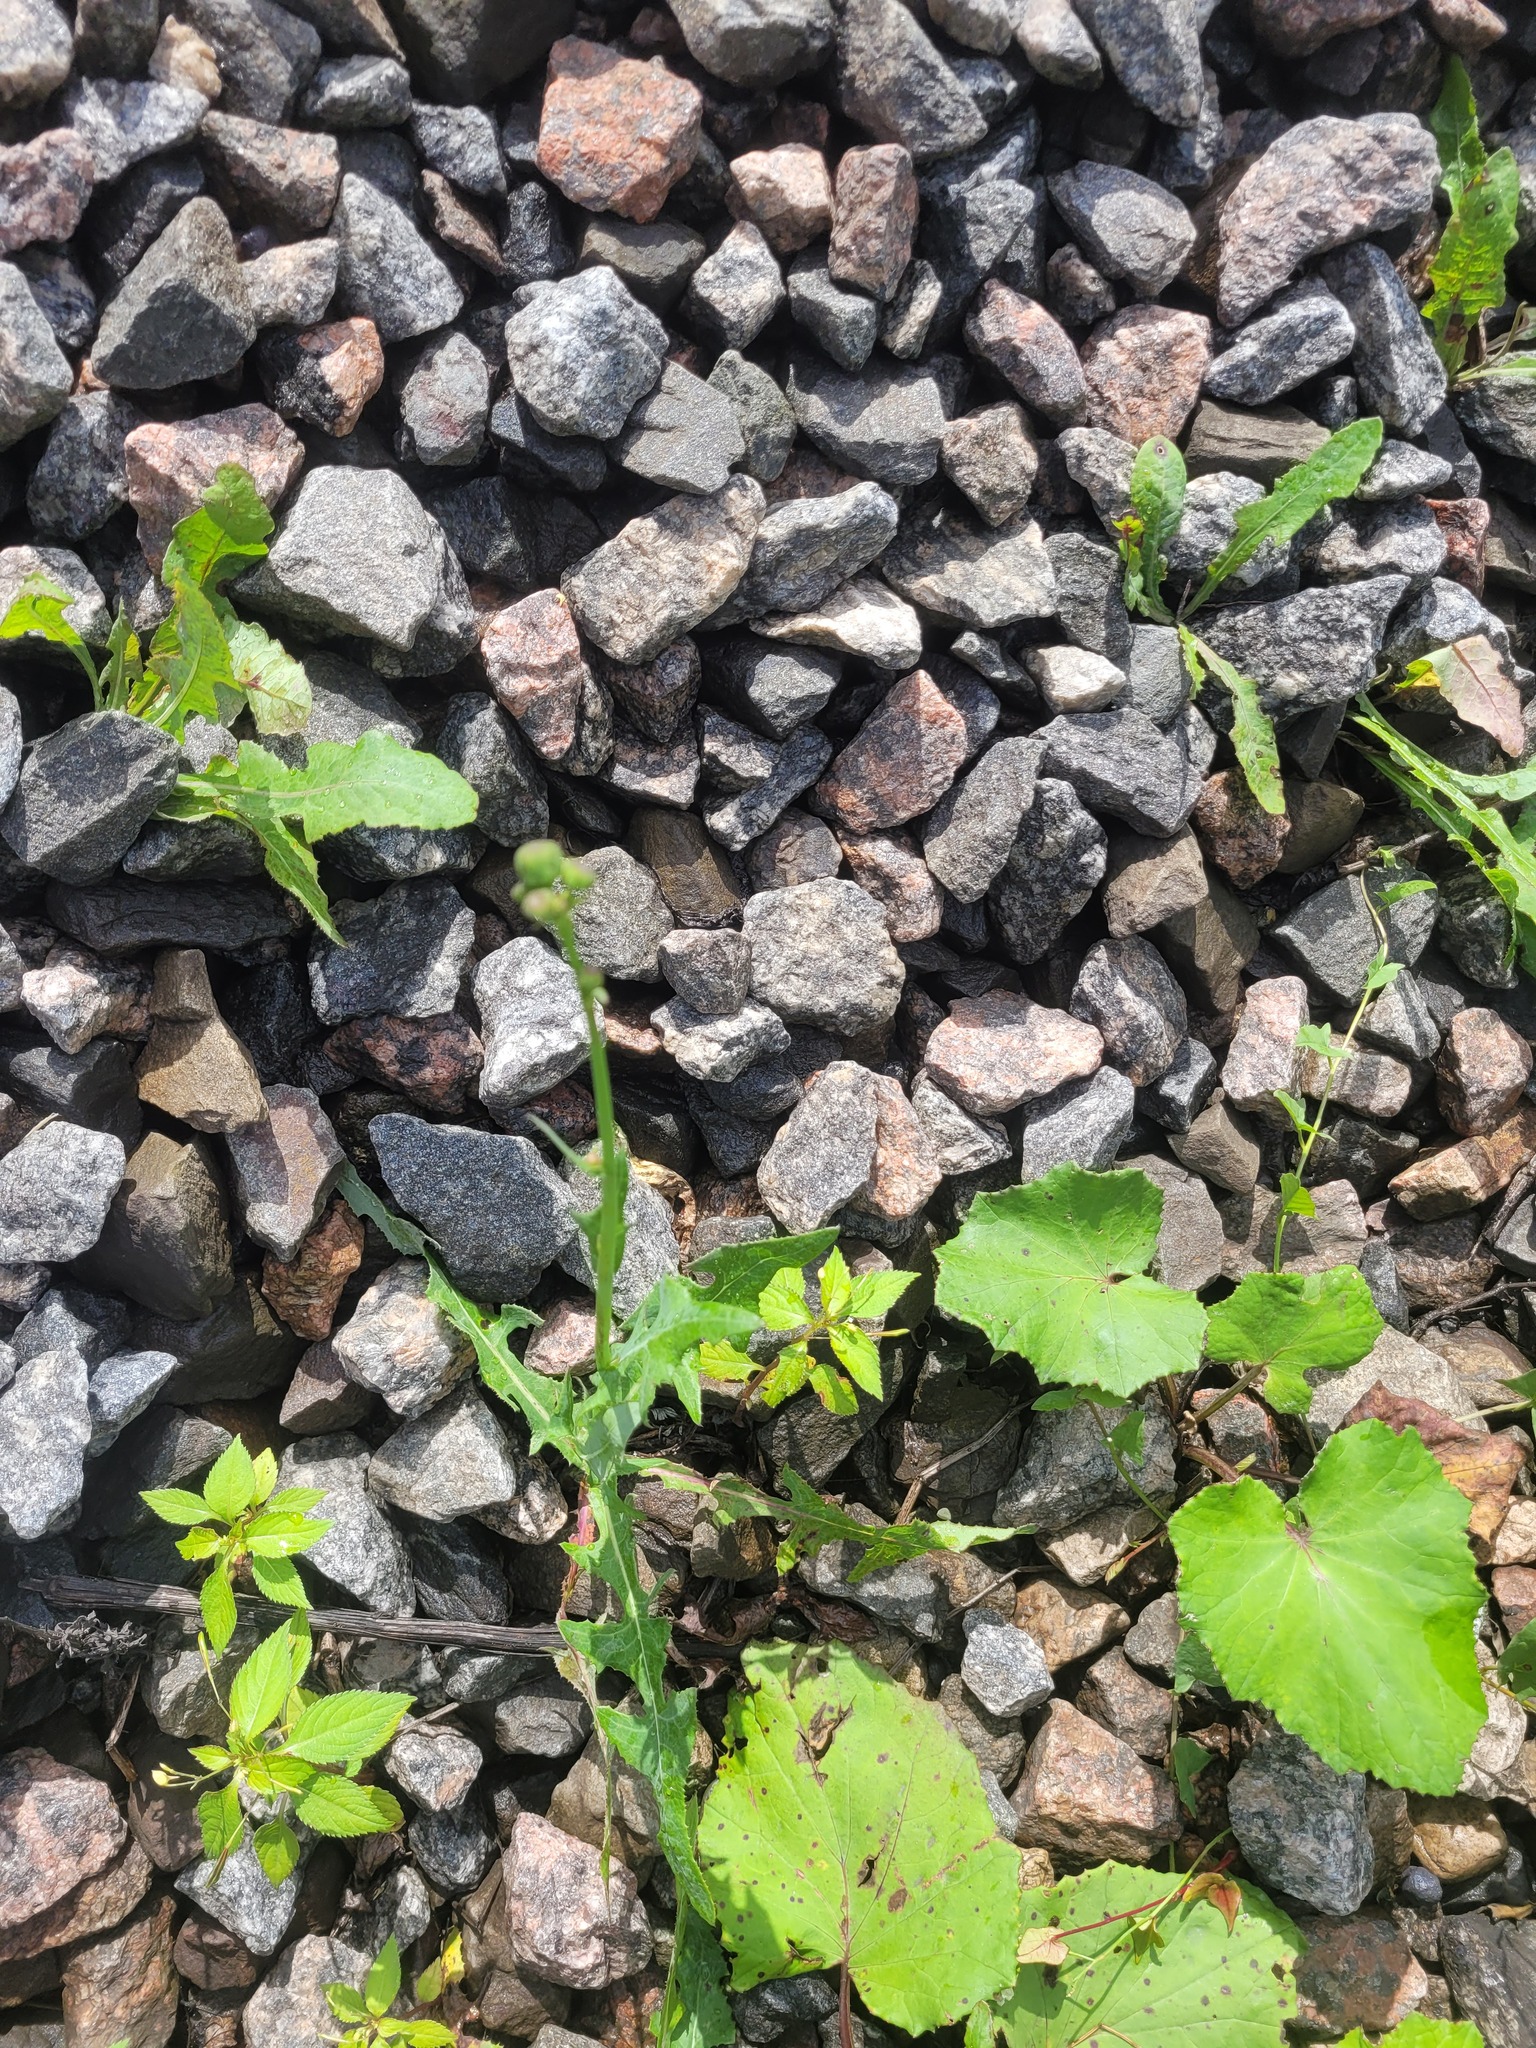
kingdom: Plantae
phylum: Tracheophyta
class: Magnoliopsida
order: Asterales
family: Asteraceae
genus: Sonchus
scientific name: Sonchus arvensis
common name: Perennial sow-thistle
